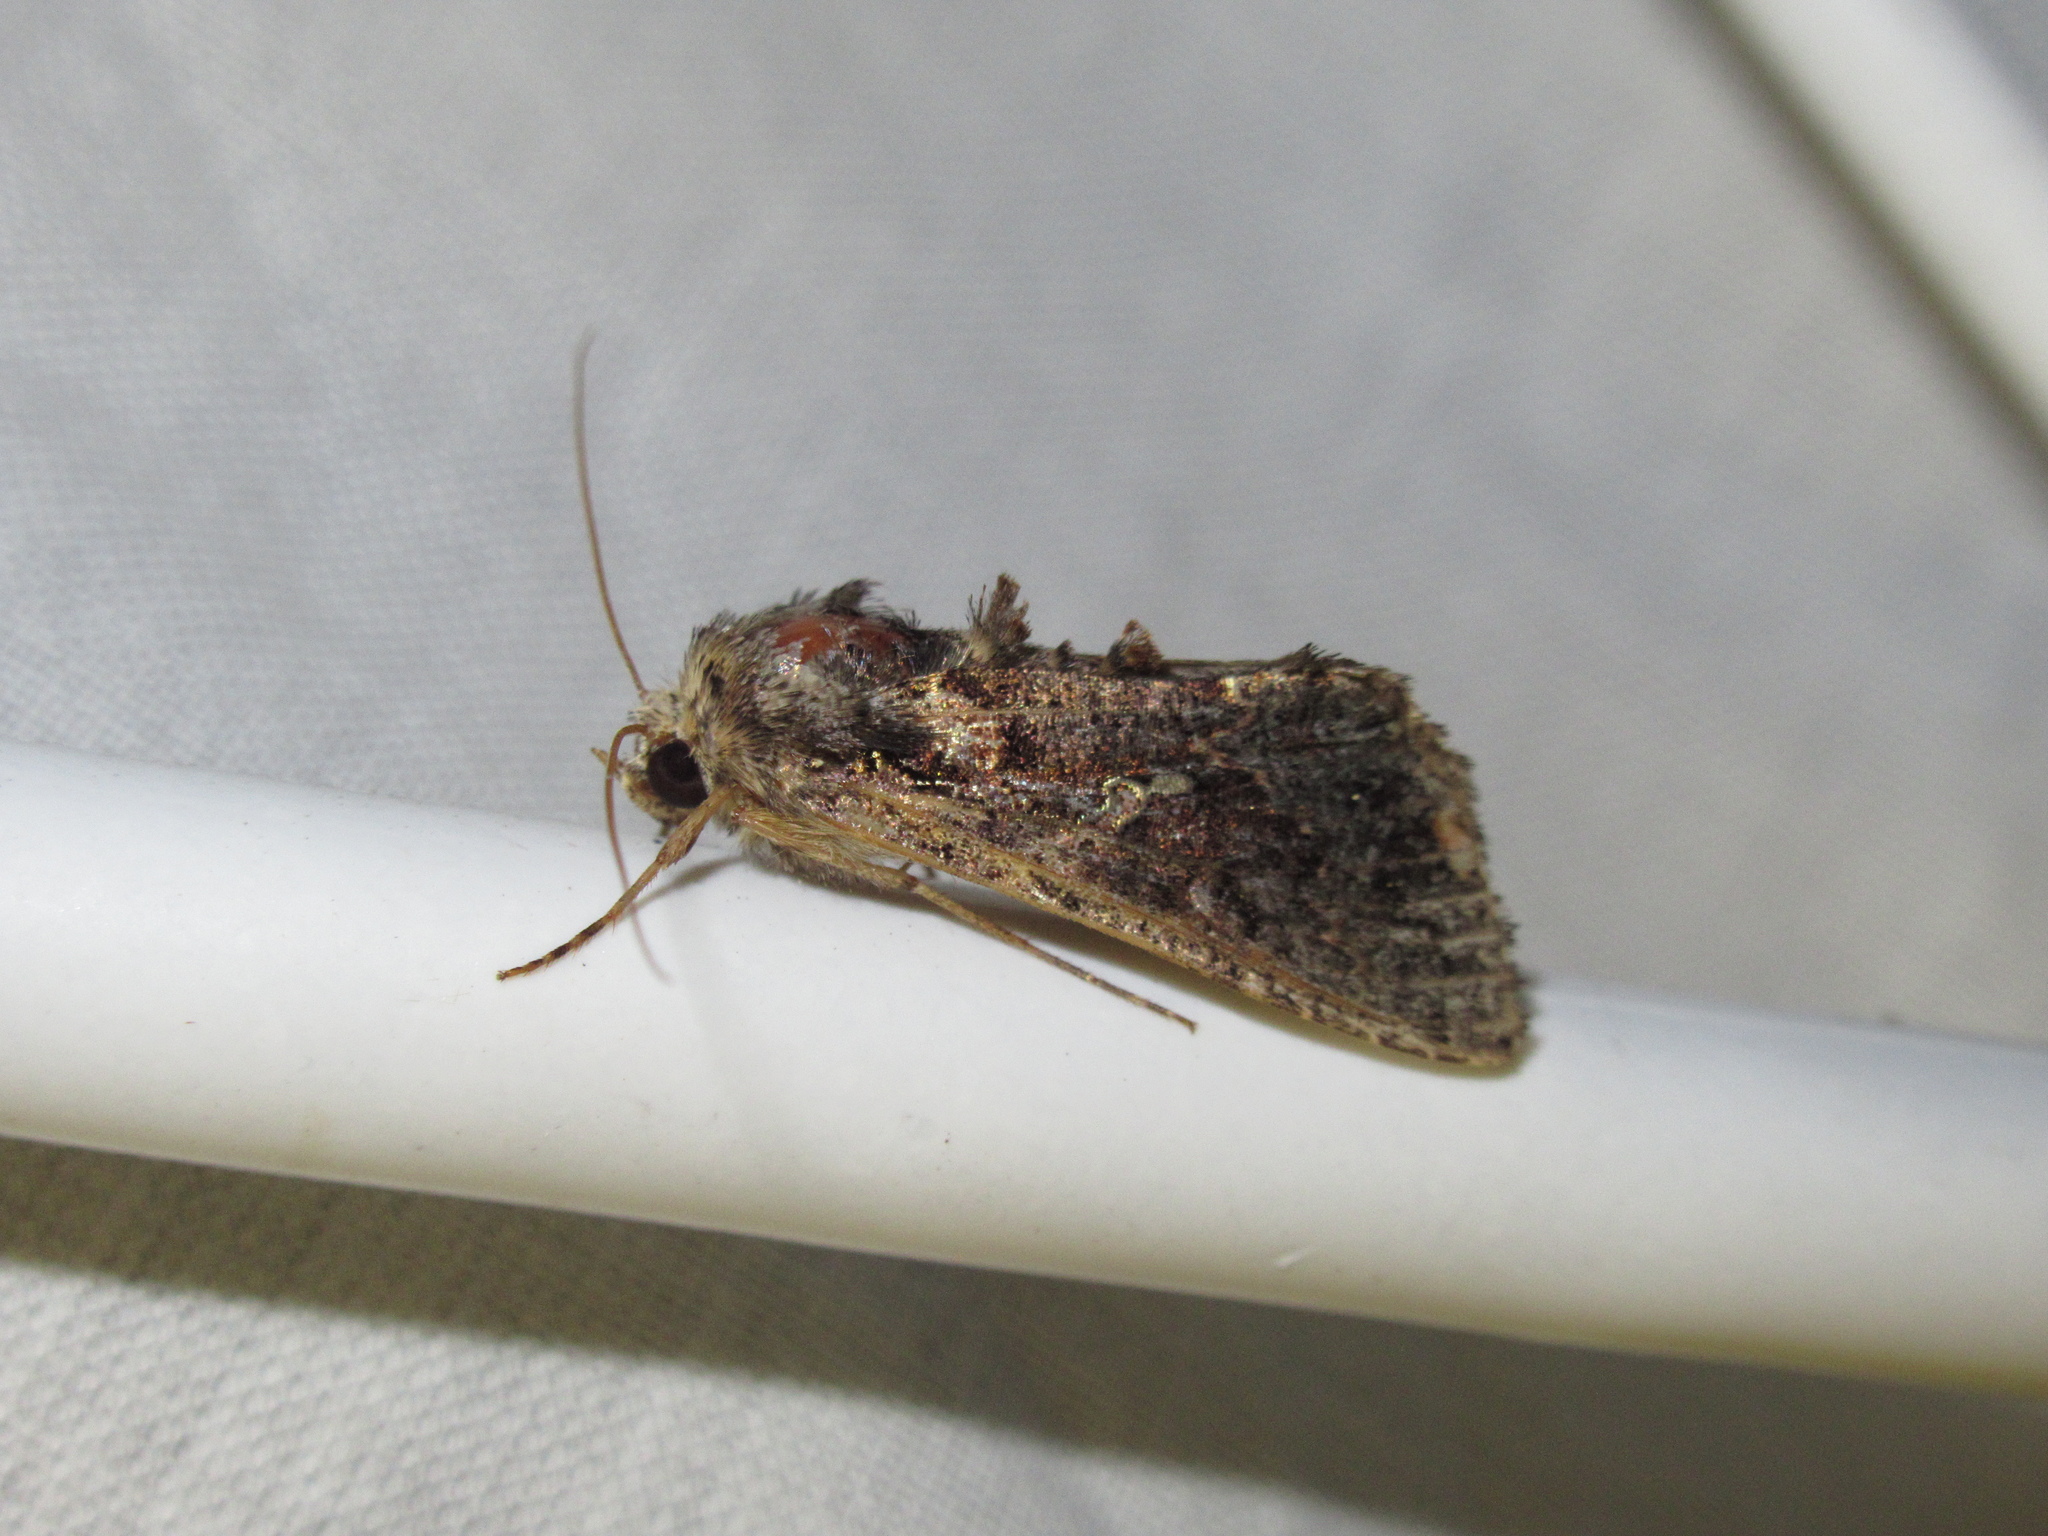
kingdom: Animalia
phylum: Arthropoda
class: Insecta
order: Lepidoptera
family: Noctuidae
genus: Ctenoplusia
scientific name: Ctenoplusia limbirena
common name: Scar bank gem
